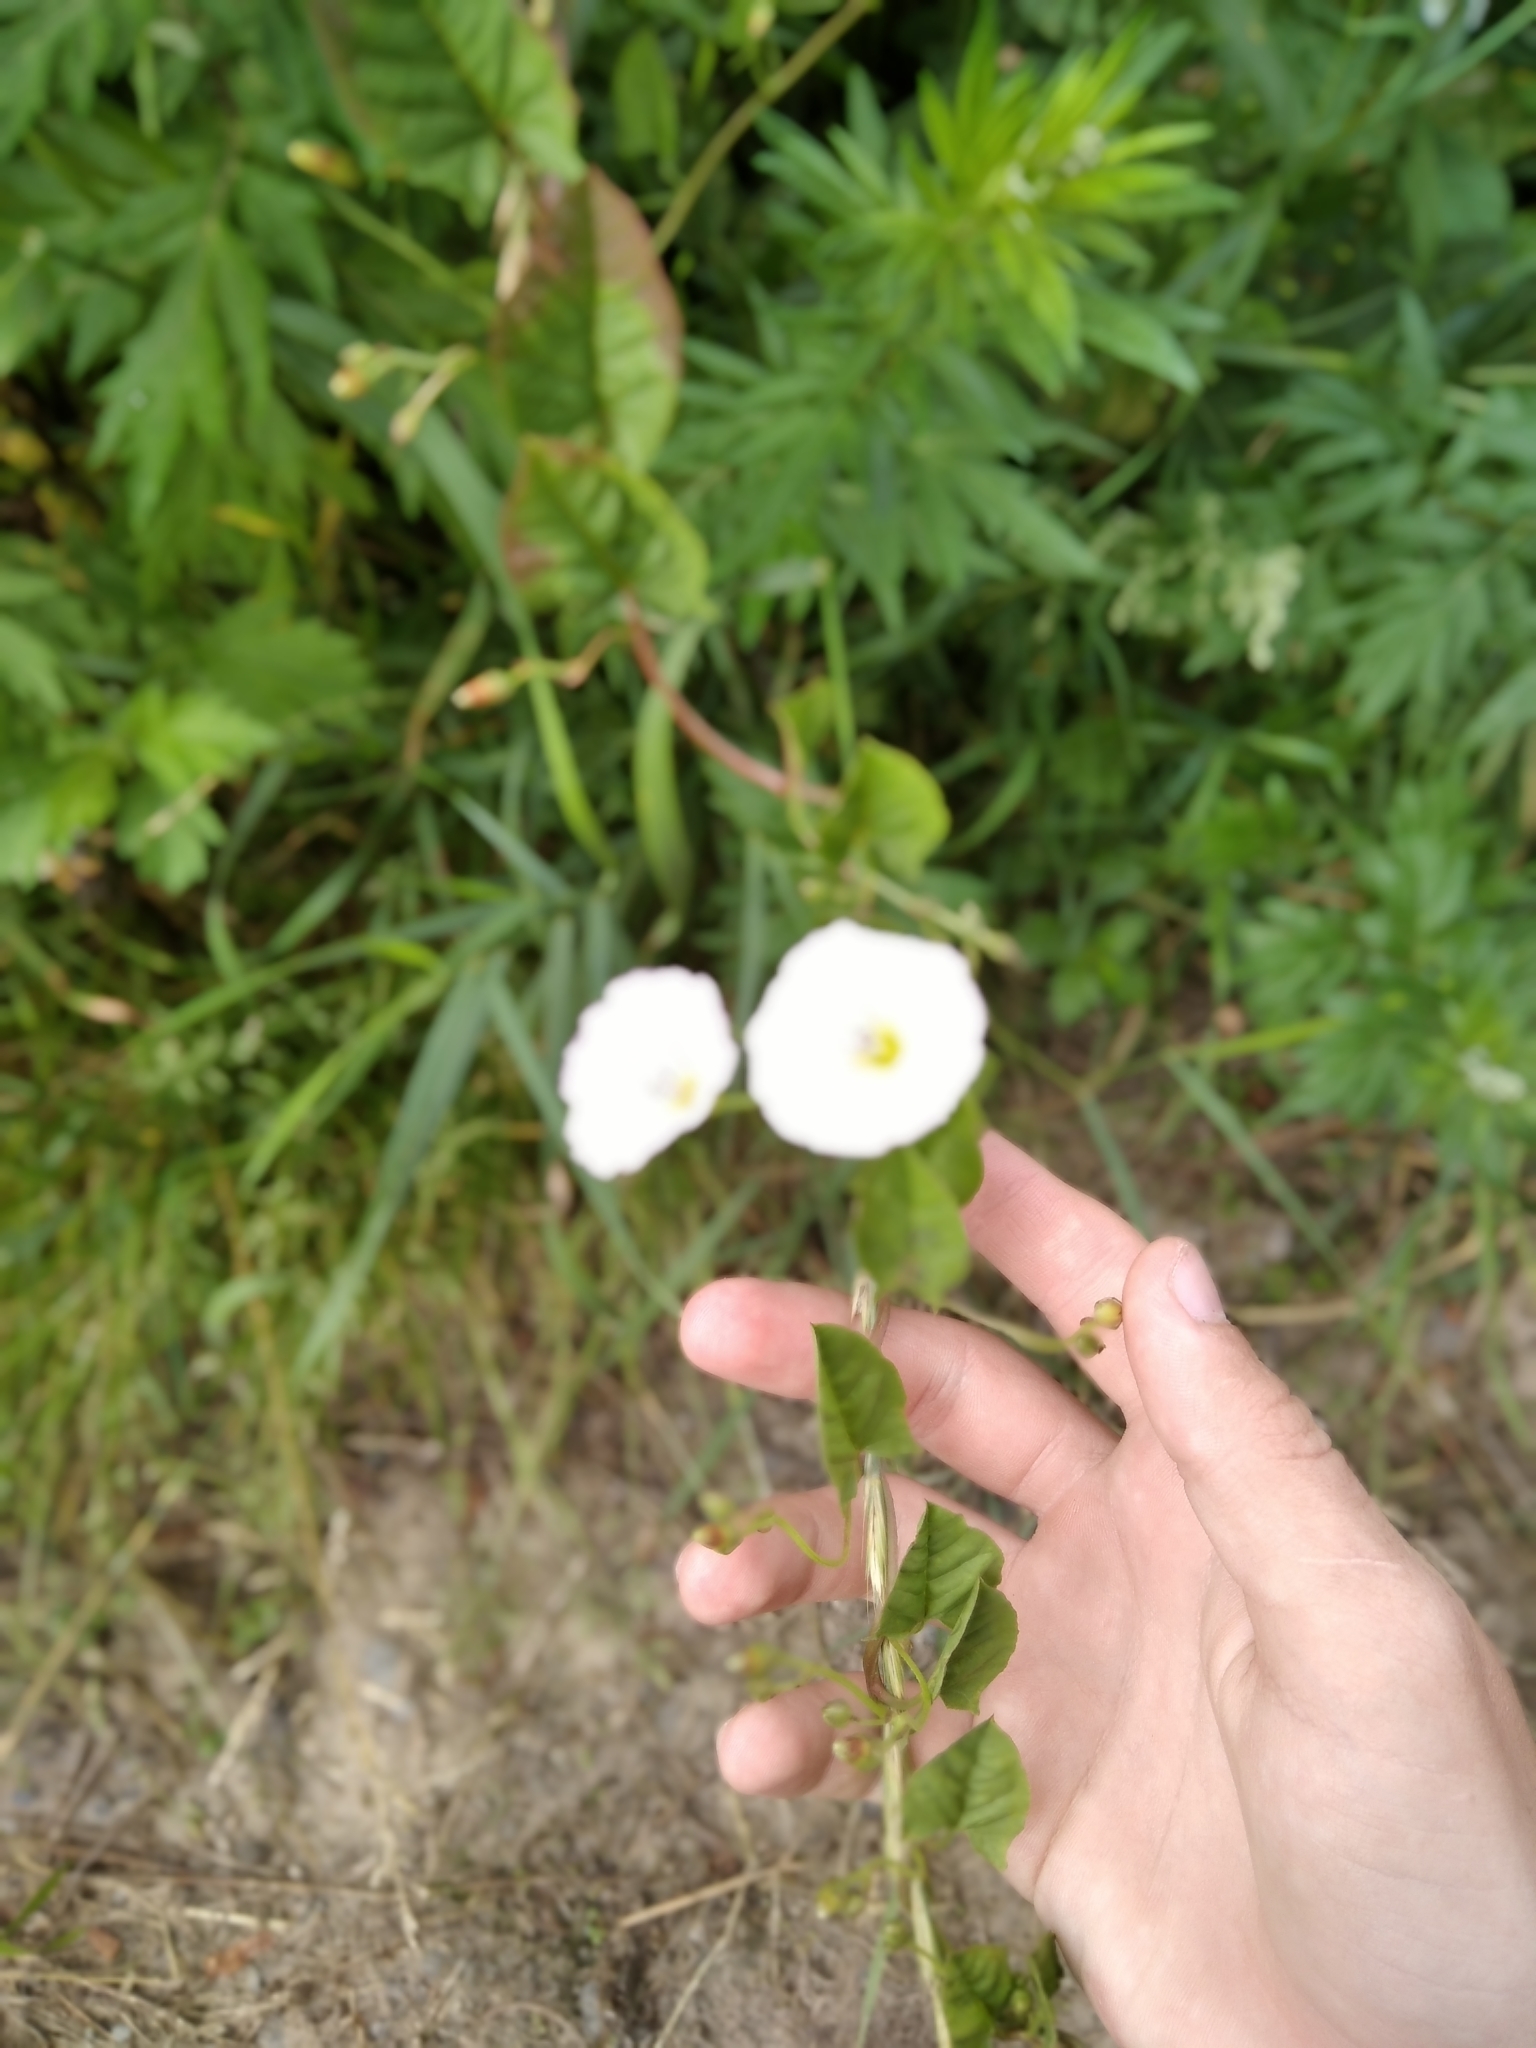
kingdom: Plantae
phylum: Tracheophyta
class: Magnoliopsida
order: Solanales
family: Convolvulaceae
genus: Convolvulus
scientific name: Convolvulus arvensis
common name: Field bindweed
